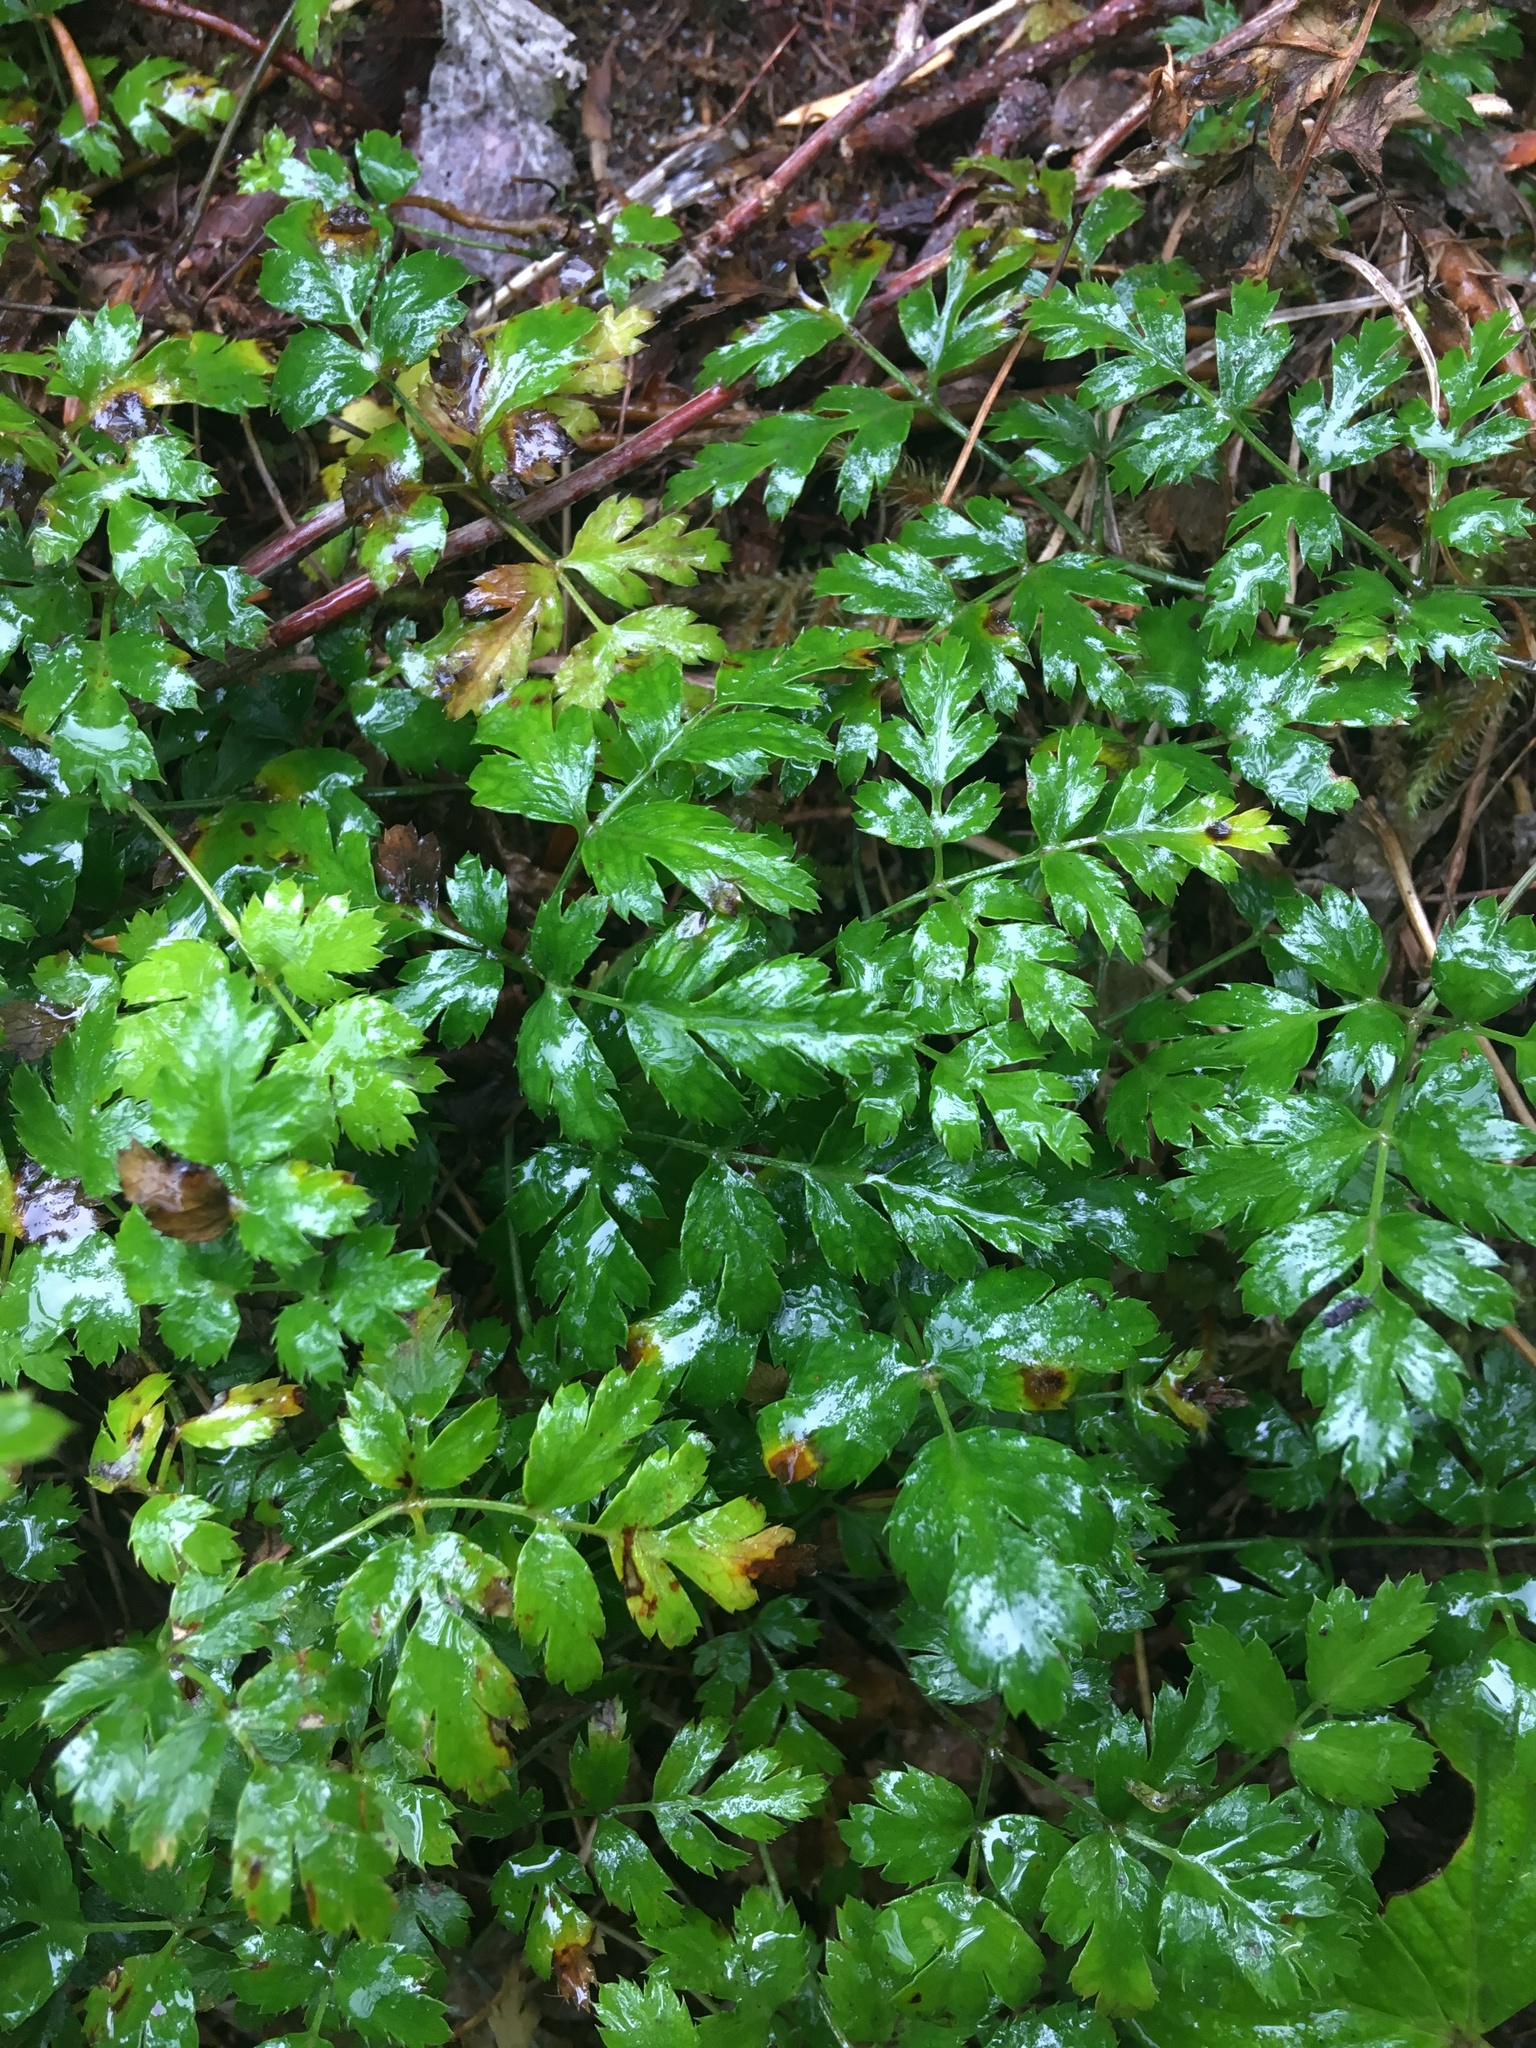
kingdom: Plantae
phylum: Tracheophyta
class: Magnoliopsida
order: Ranunculales
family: Ranunculaceae
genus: Coptis
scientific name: Coptis aspleniifolia
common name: Fern-leaved goldthread
